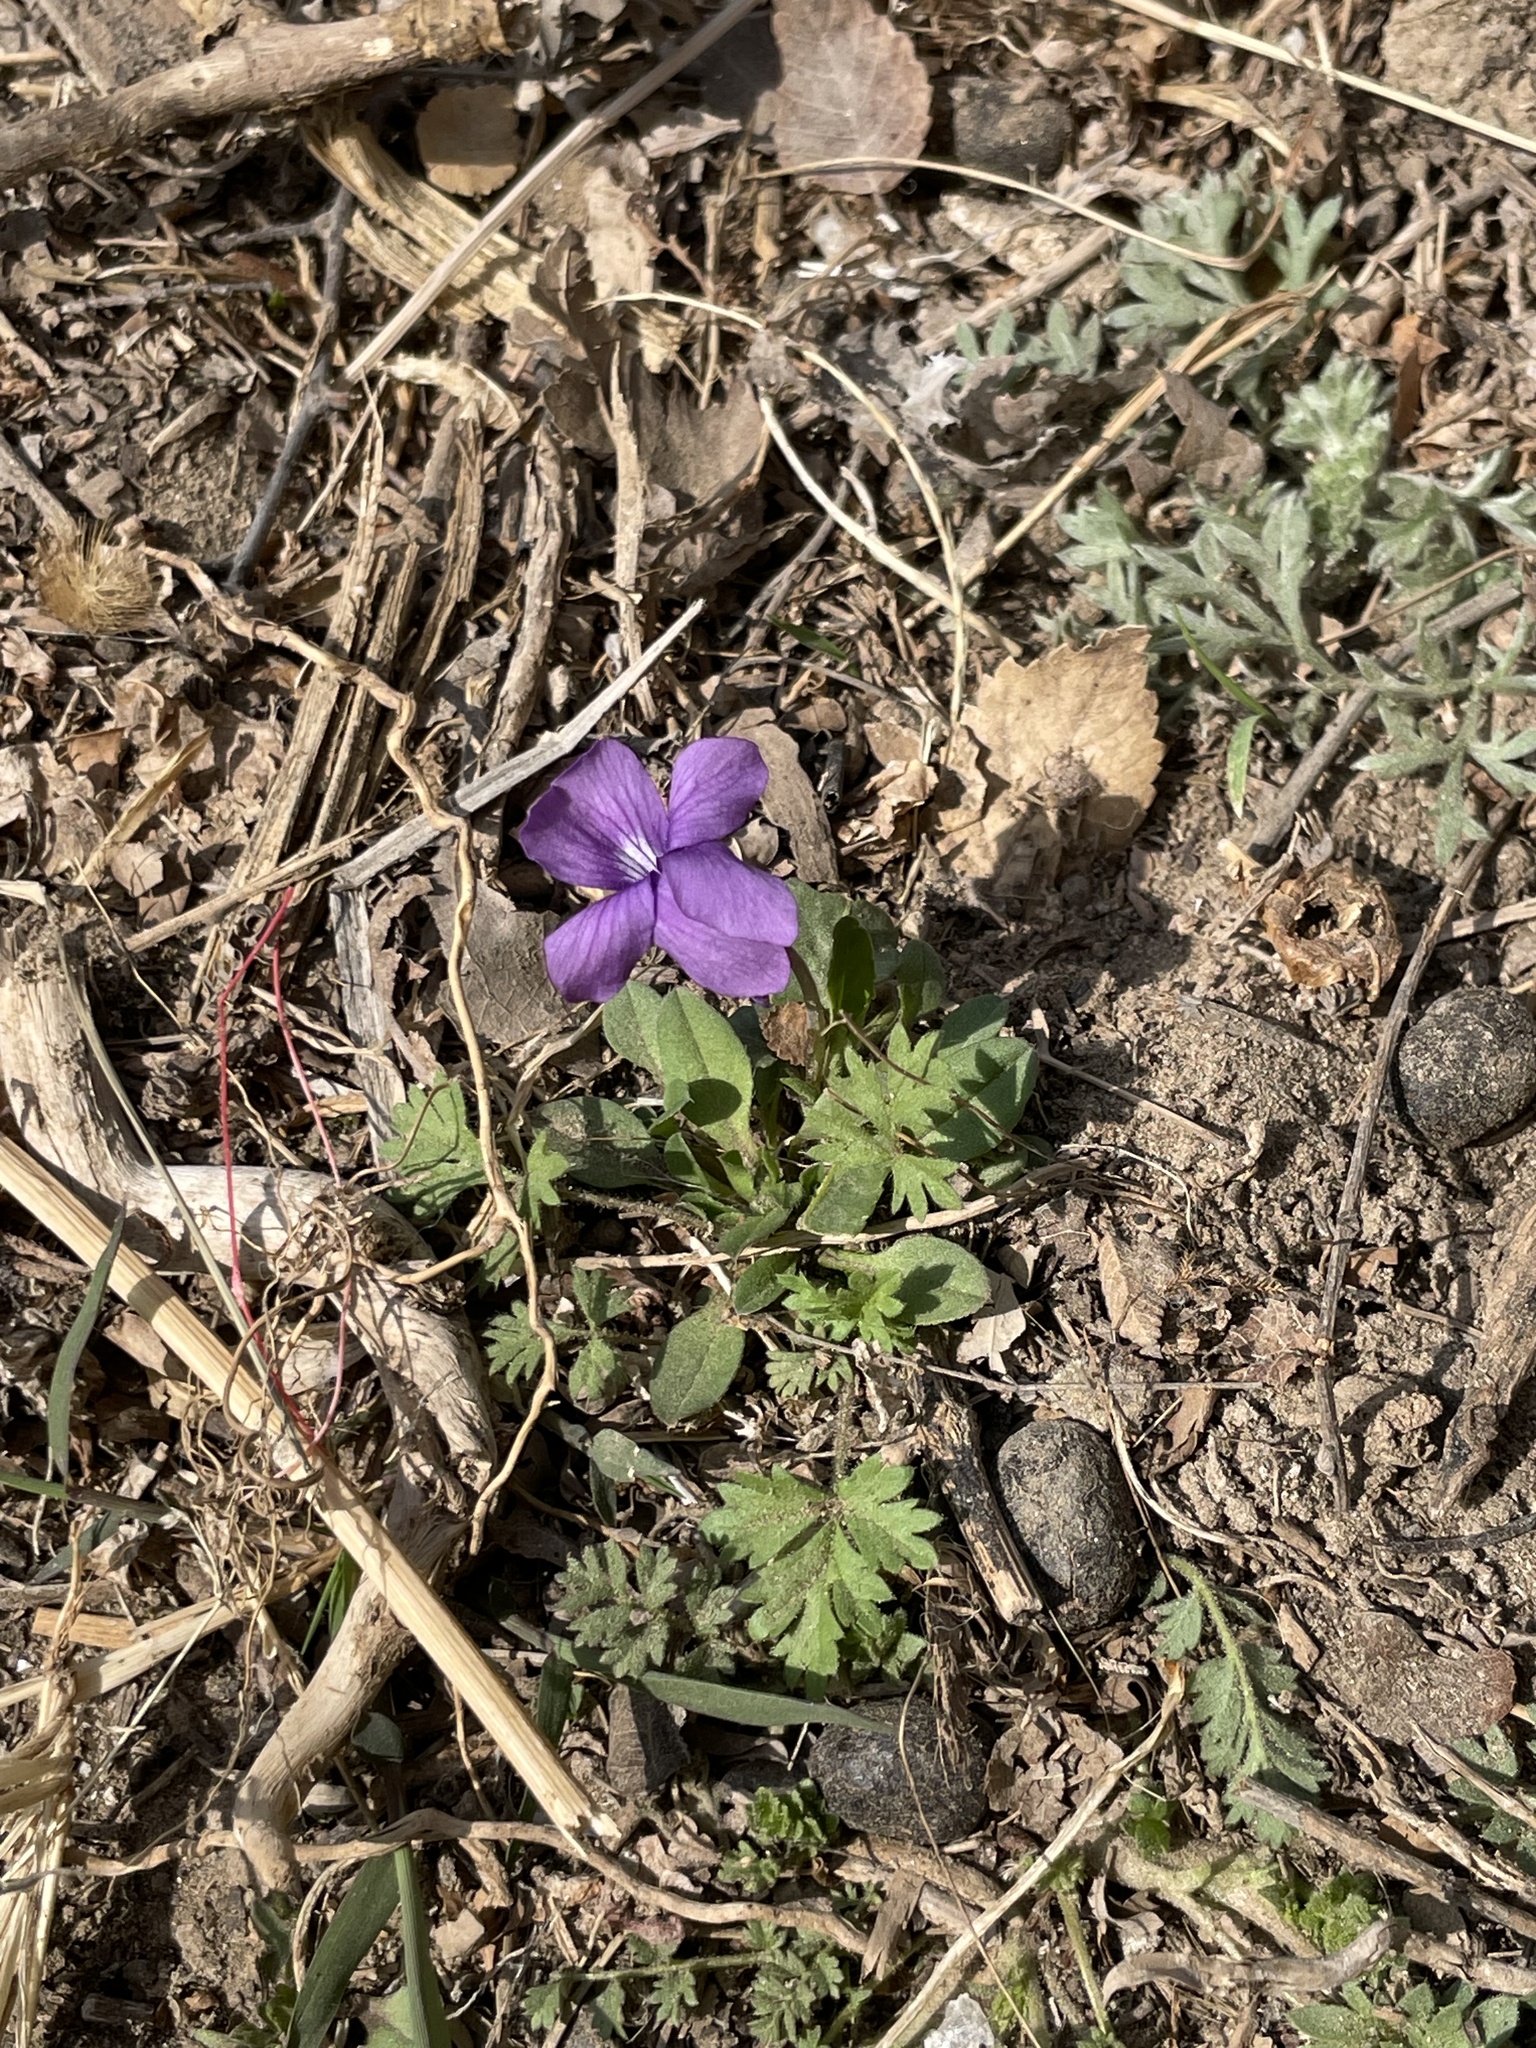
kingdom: Plantae
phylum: Tracheophyta
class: Magnoliopsida
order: Malpighiales
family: Violaceae
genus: Viola
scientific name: Viola prionantha
